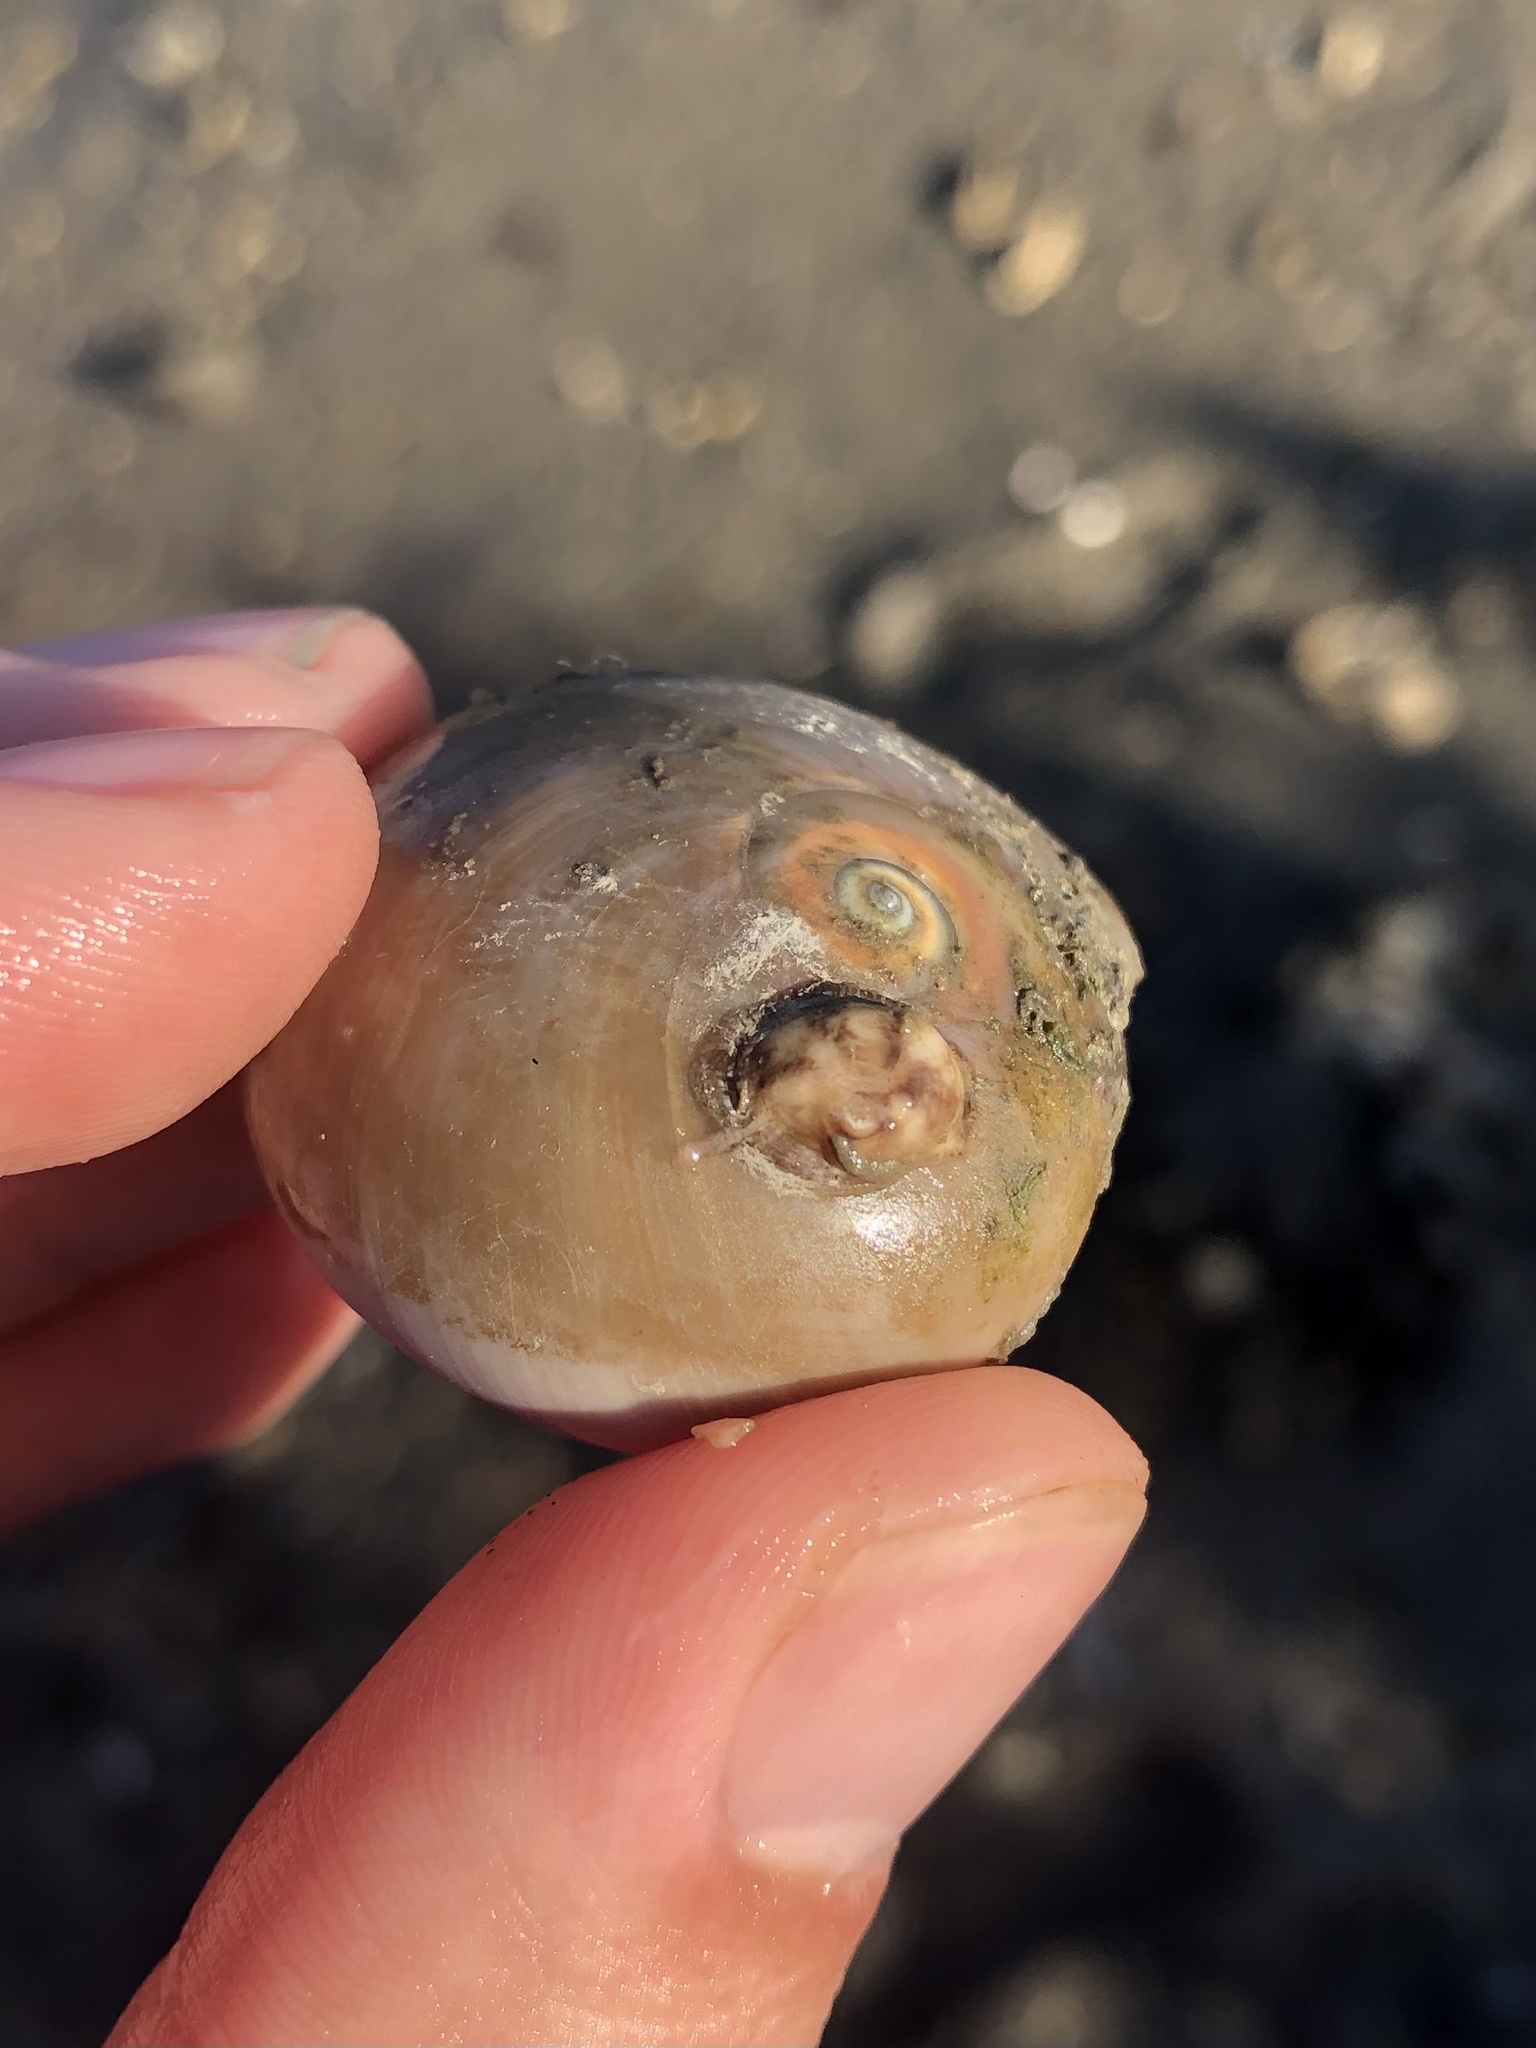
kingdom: Animalia
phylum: Cnidaria
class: Anthozoa
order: Actiniaria
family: Hormathiidae
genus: Calliactis
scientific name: Calliactis tricolor
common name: Hermit anemone
